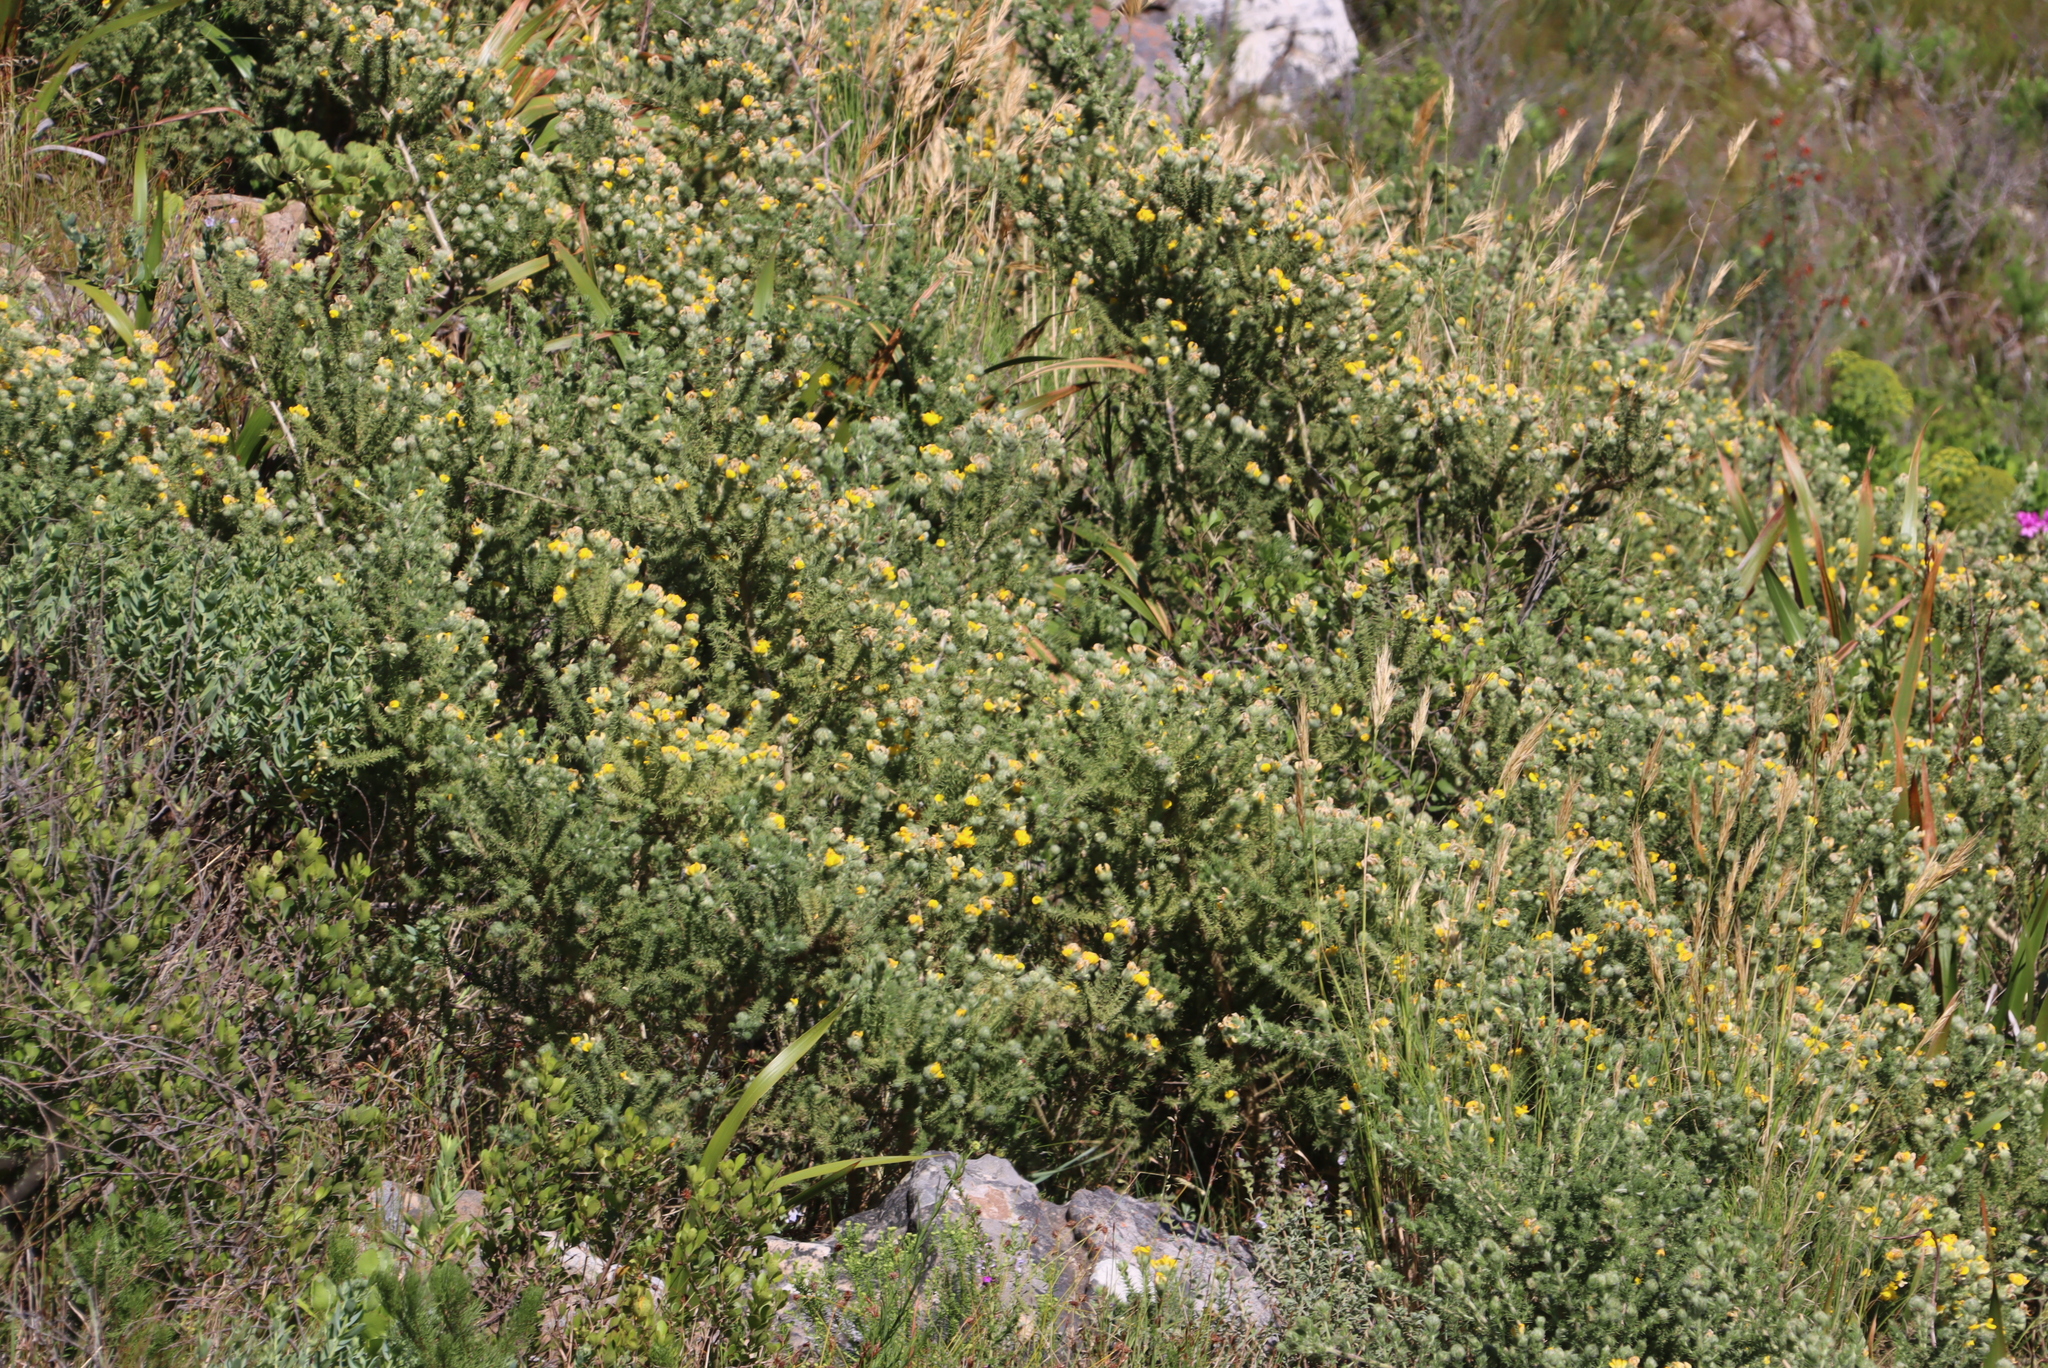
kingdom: Plantae
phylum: Tracheophyta
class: Magnoliopsida
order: Fabales
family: Fabaceae
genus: Aspalathus
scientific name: Aspalathus chenopoda
